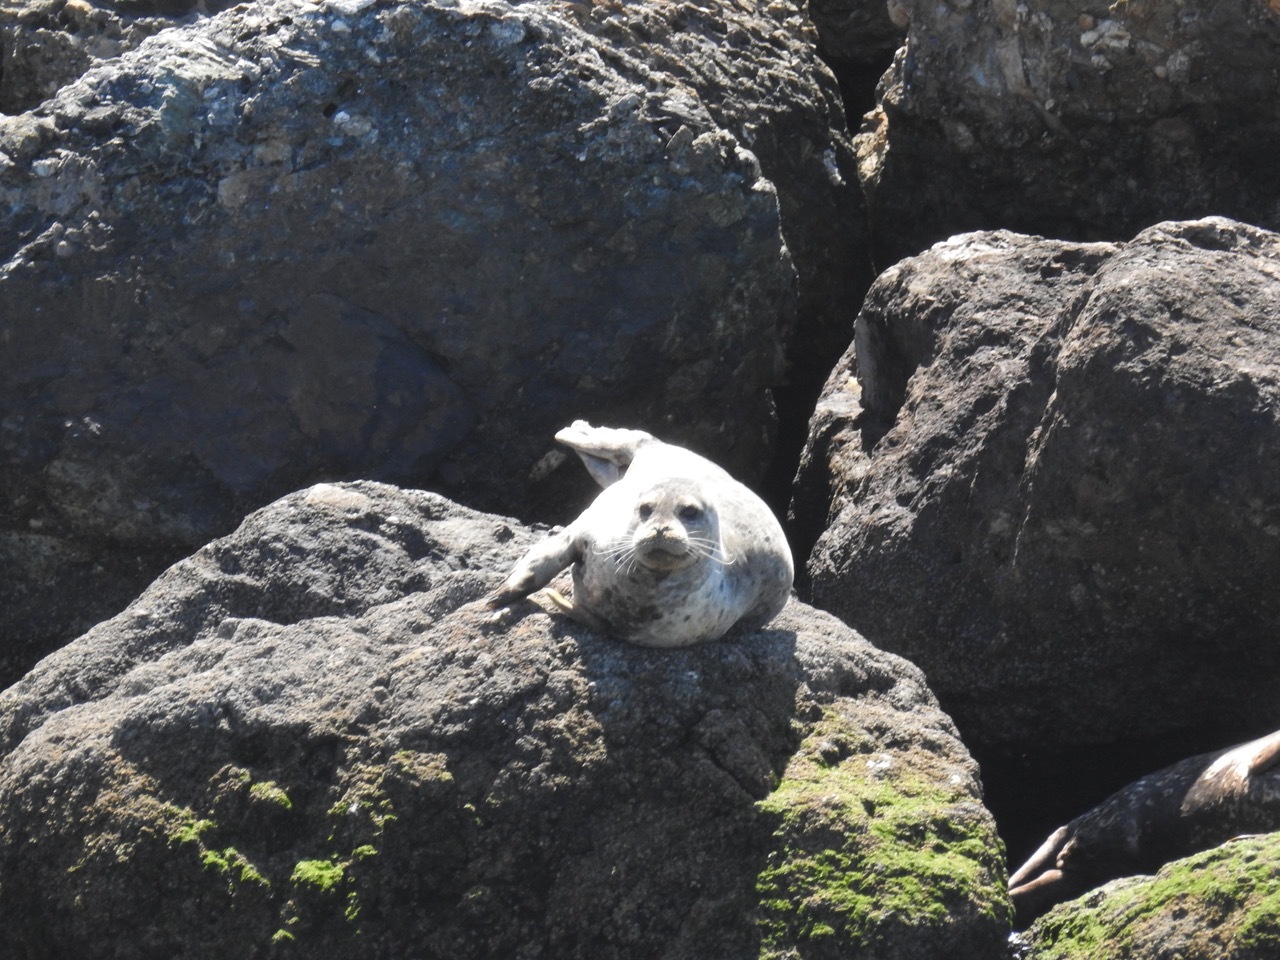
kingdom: Animalia
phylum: Chordata
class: Mammalia
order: Carnivora
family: Phocidae
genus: Phoca
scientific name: Phoca vitulina
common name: Harbor seal
